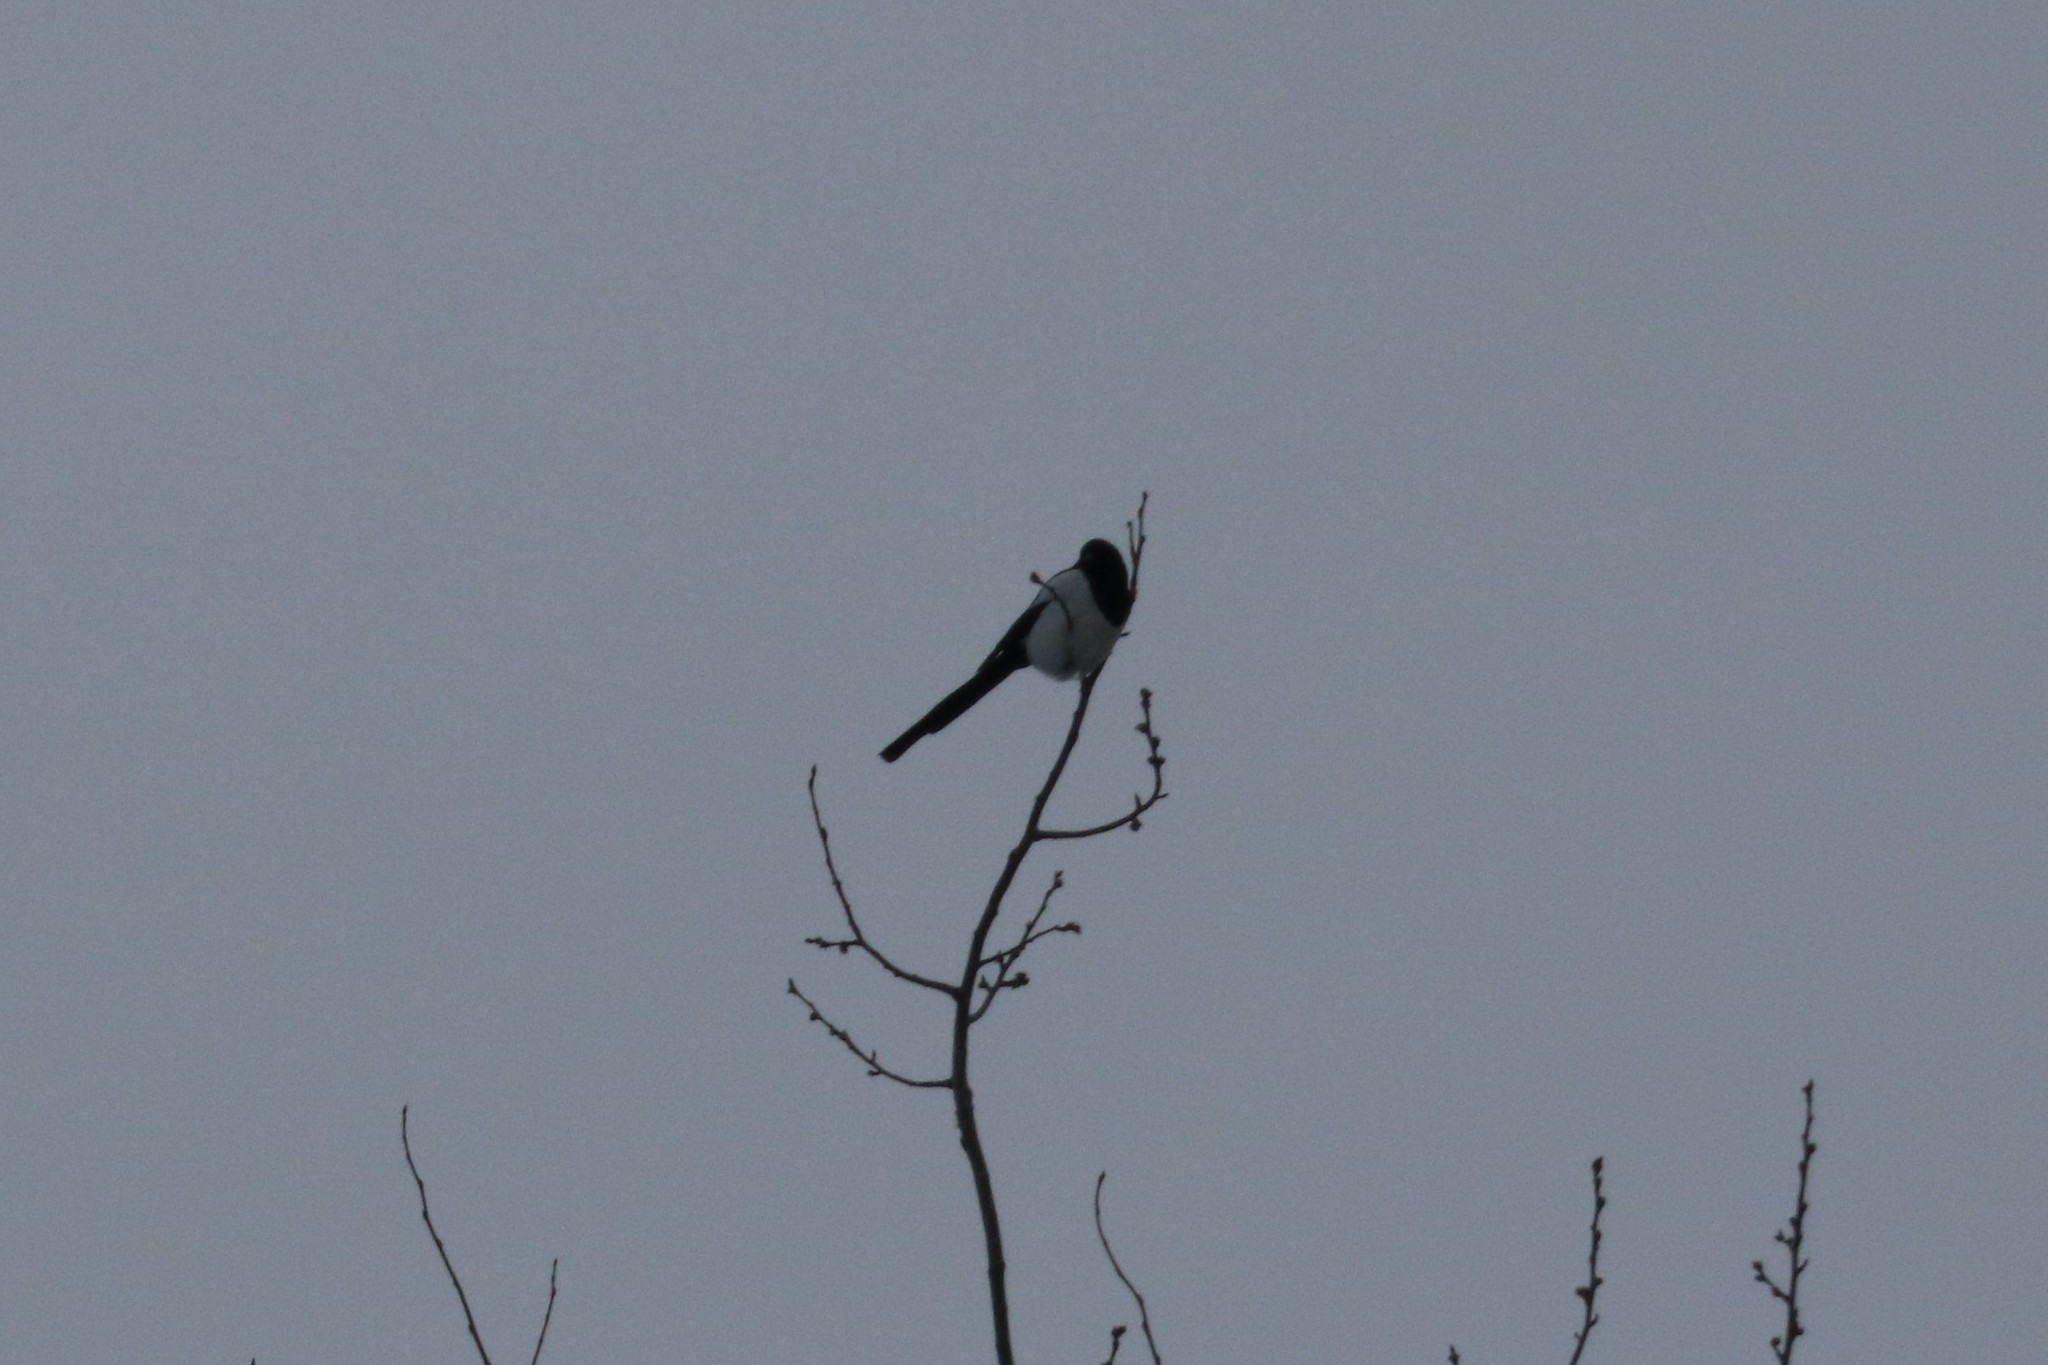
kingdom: Animalia
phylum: Chordata
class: Aves
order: Passeriformes
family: Corvidae
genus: Pica
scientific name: Pica pica
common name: Eurasian magpie
